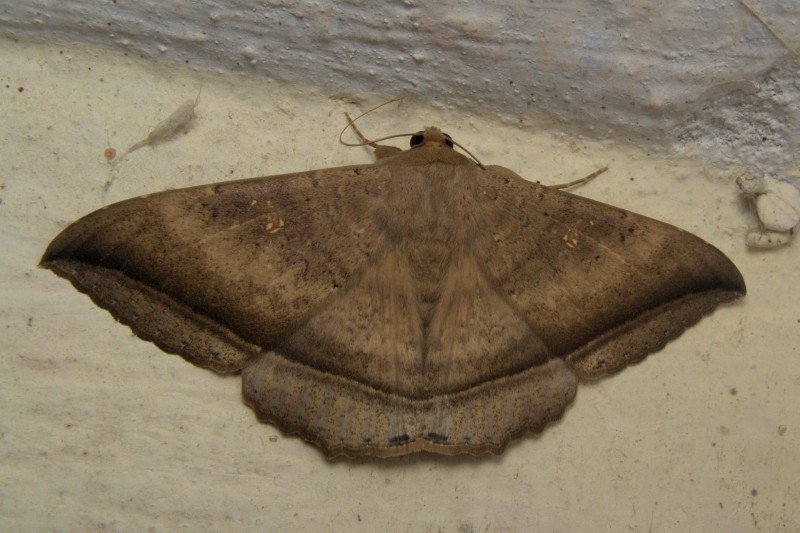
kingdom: Animalia
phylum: Arthropoda
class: Insecta
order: Lepidoptera
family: Erebidae
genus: Hulodes
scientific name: Hulodes caranea
